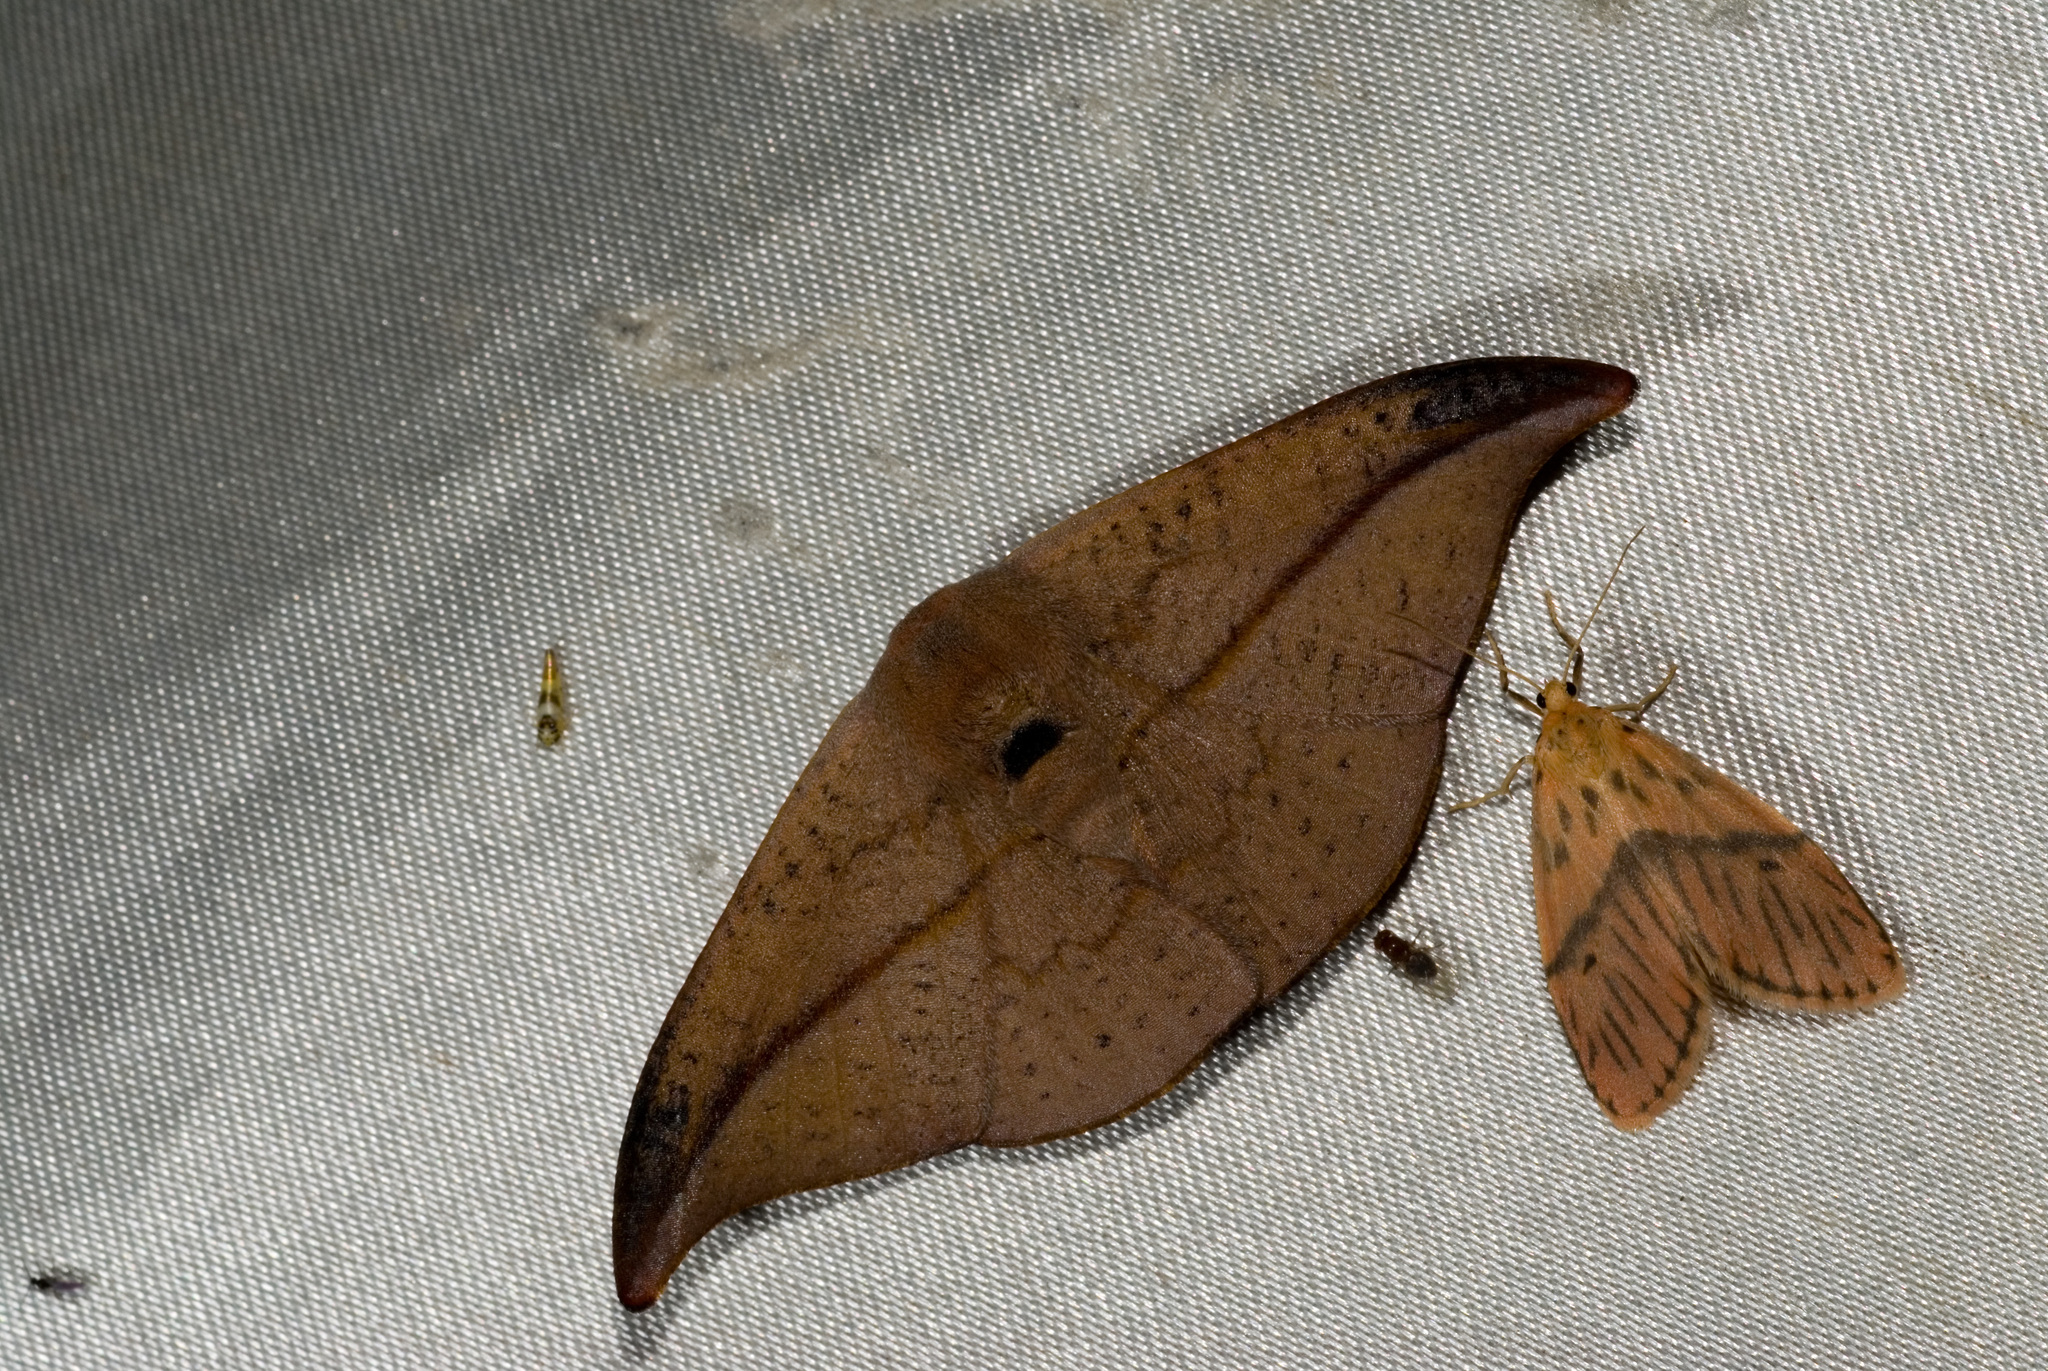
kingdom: Animalia
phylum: Arthropoda
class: Insecta
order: Lepidoptera
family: Erebidae
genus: Miltochrista
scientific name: Miltochrista mediobliqua
